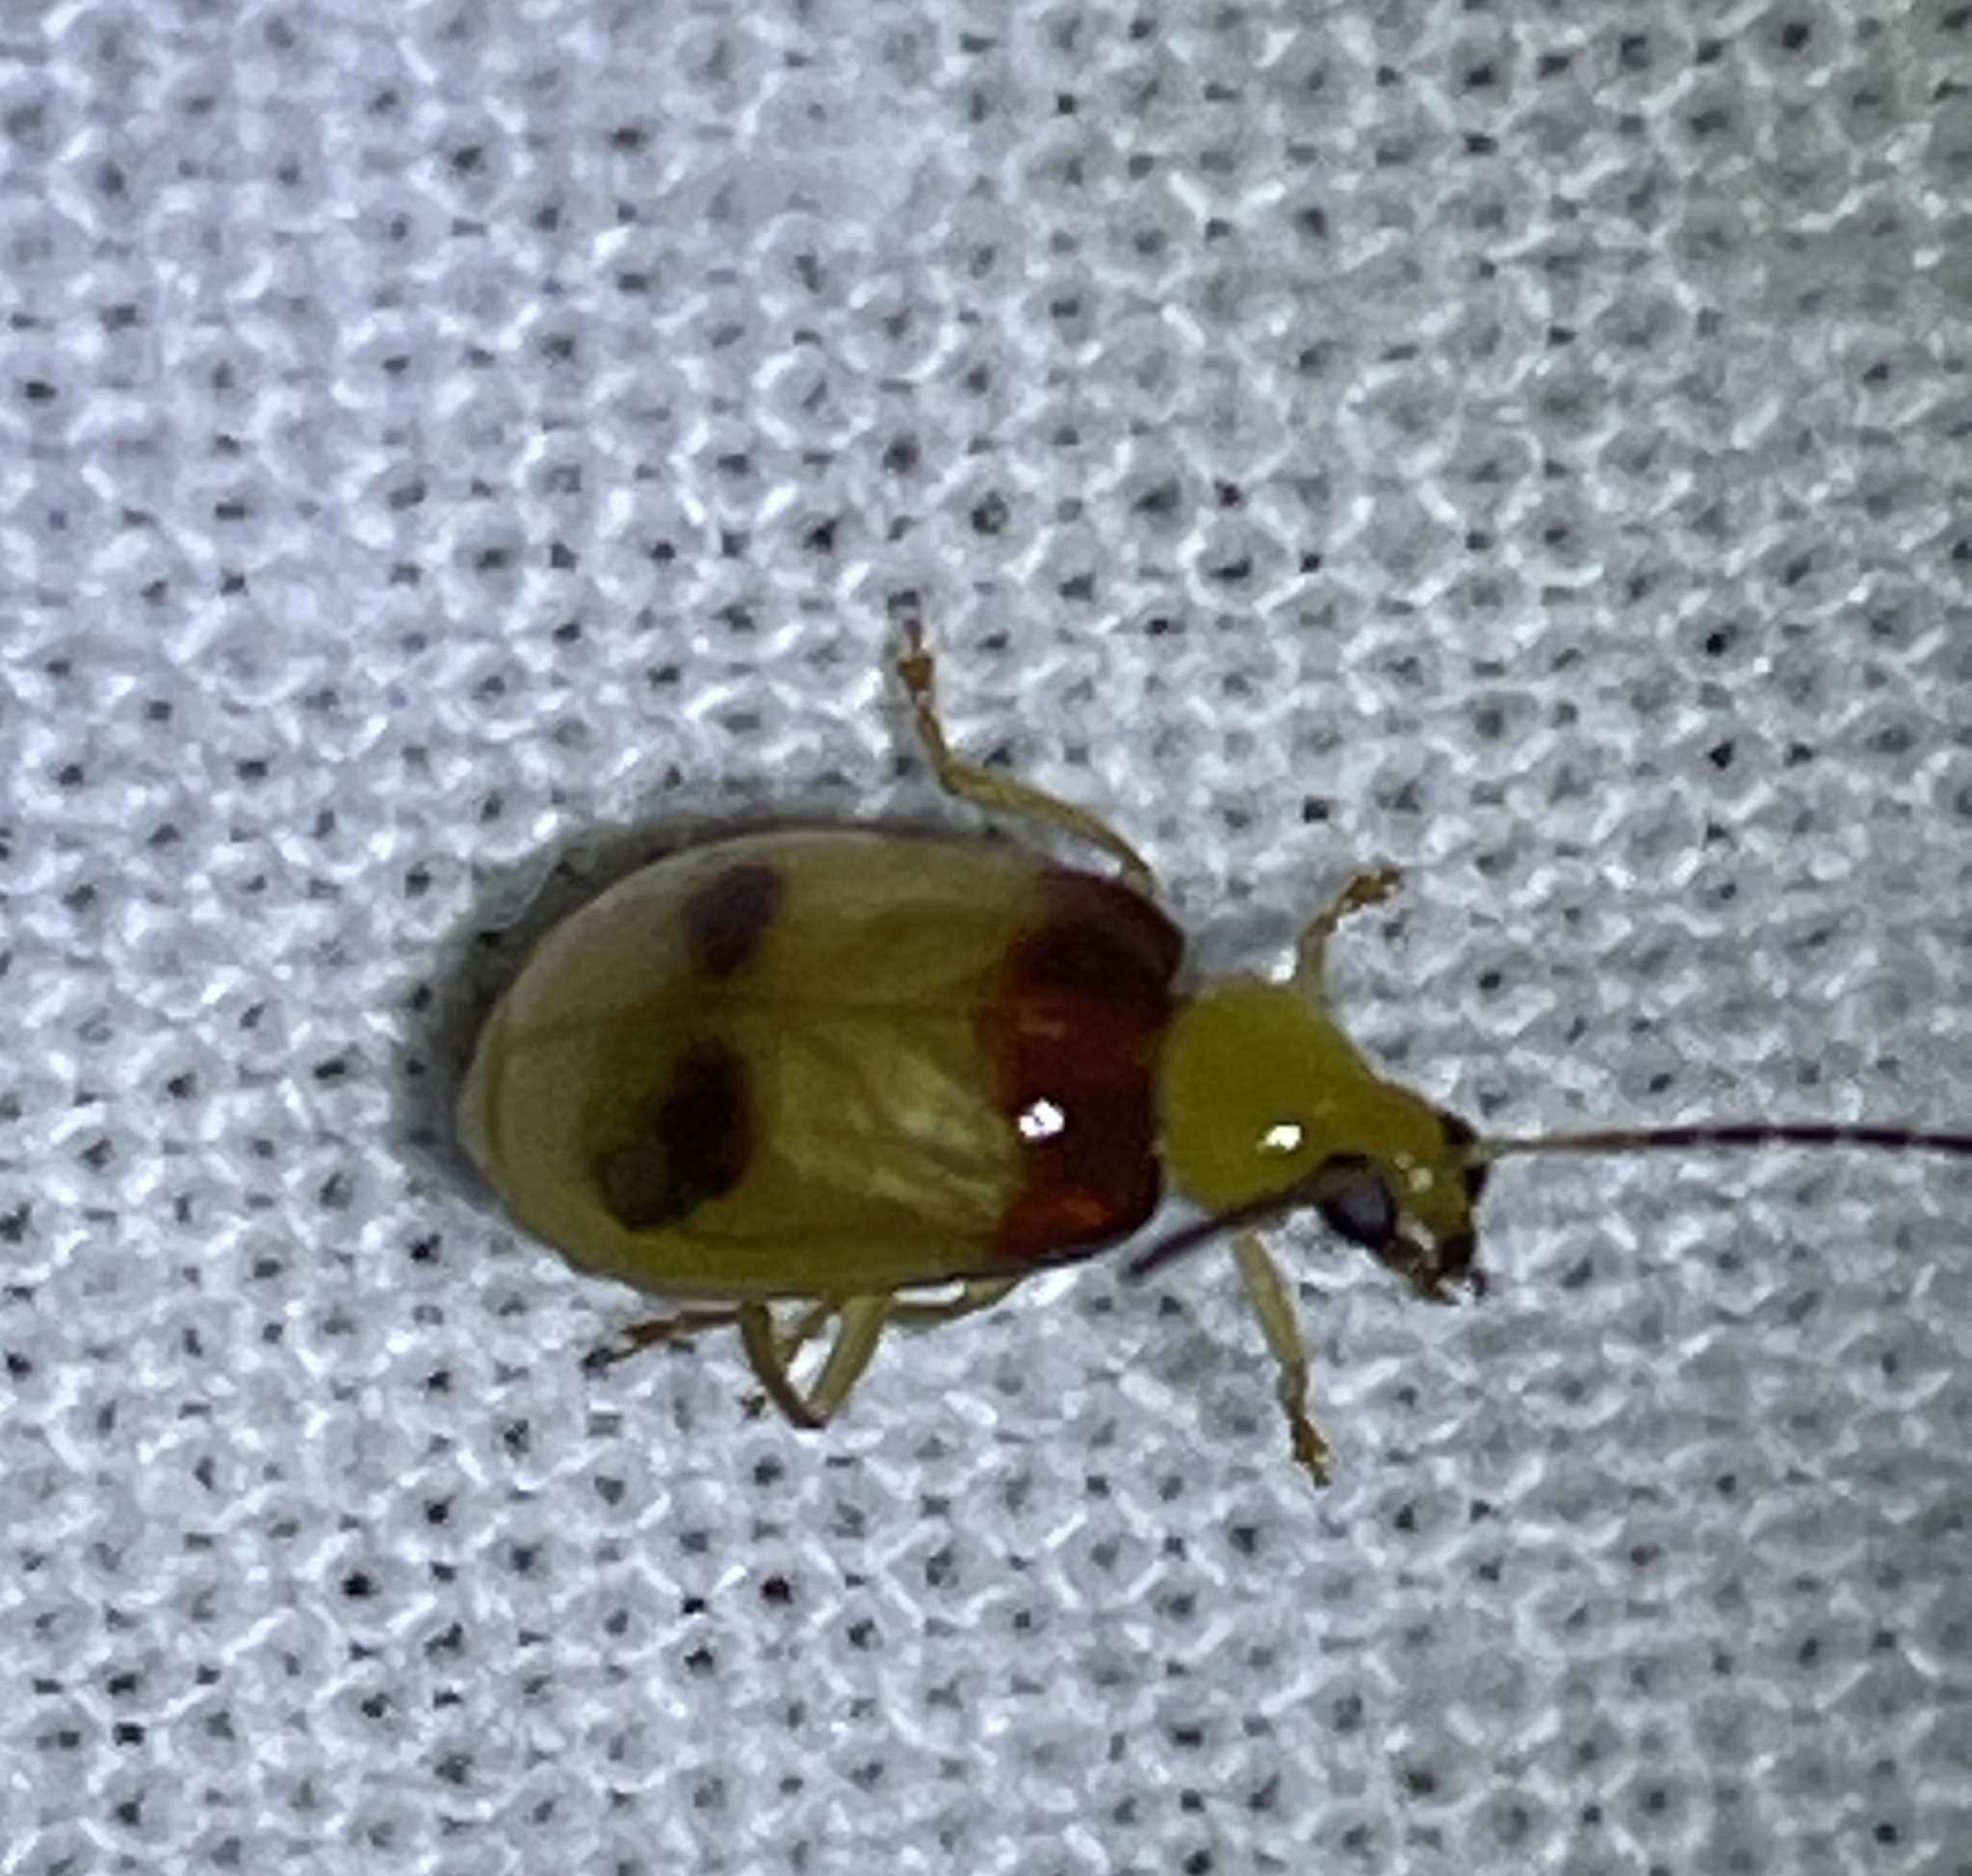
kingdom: Animalia
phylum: Arthropoda
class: Insecta
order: Coleoptera
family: Chrysomelidae
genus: Monolepta
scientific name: Monolepta
